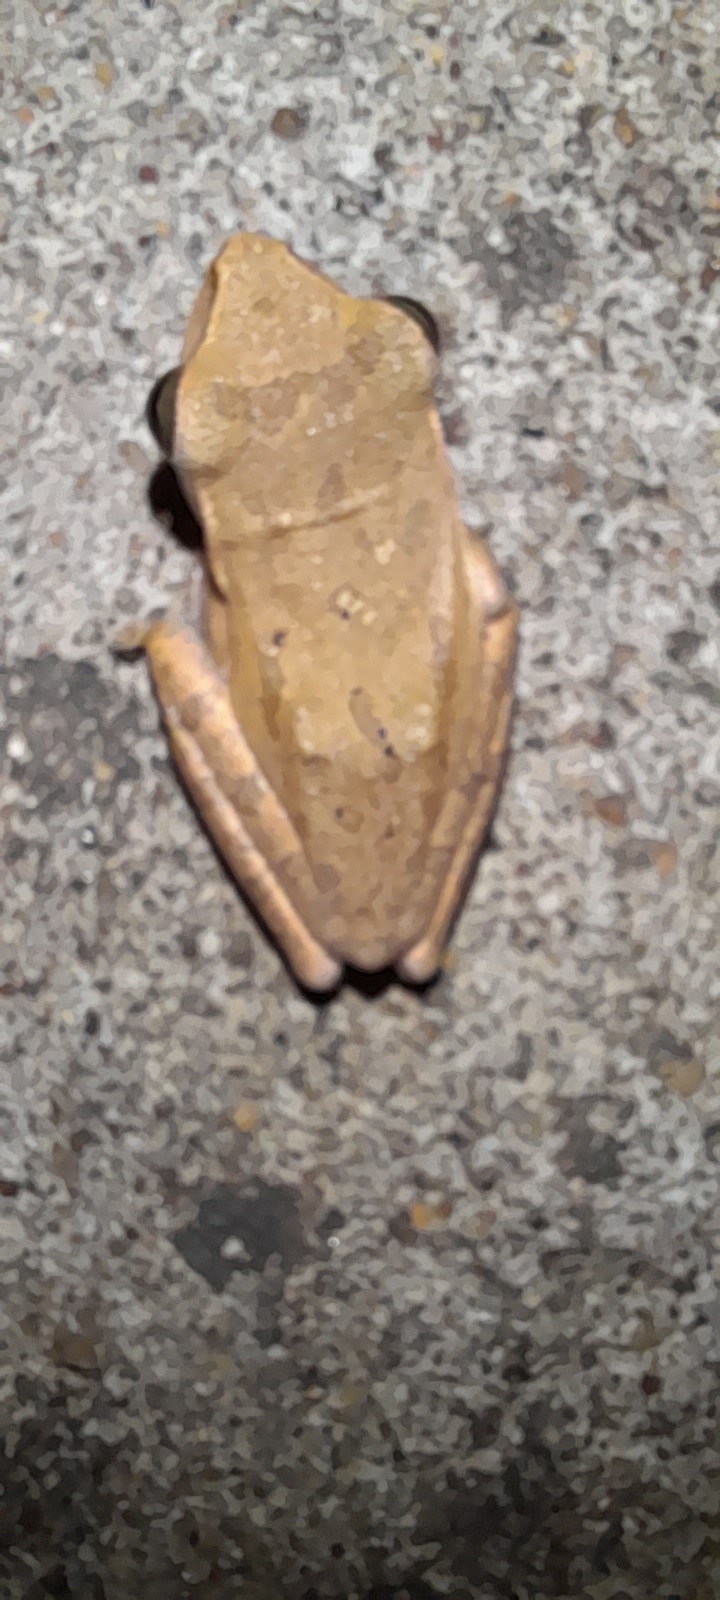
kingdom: Animalia
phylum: Chordata
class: Amphibia
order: Anura
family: Rhacophoridae
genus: Polypedates
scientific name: Polypedates maculatus
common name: Himalayan tree frog
